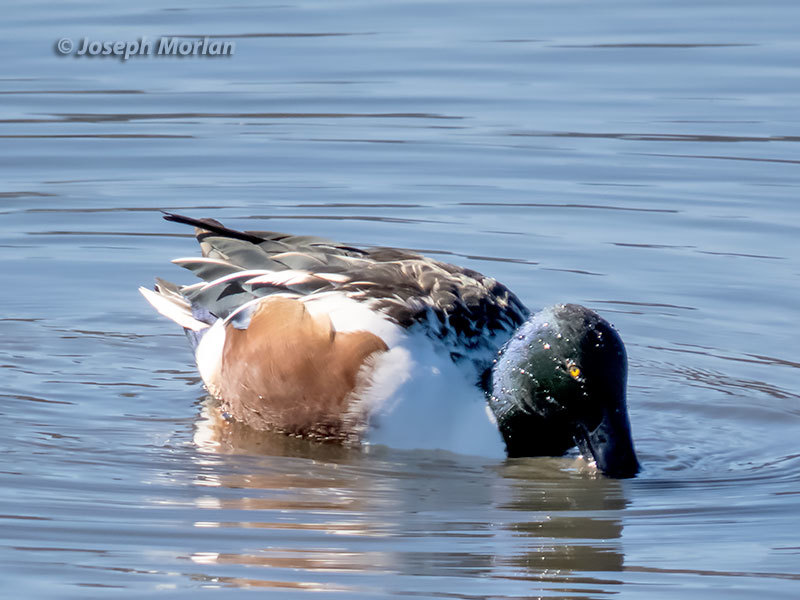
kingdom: Animalia
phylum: Chordata
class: Aves
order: Anseriformes
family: Anatidae
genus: Spatula
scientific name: Spatula clypeata
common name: Northern shoveler
